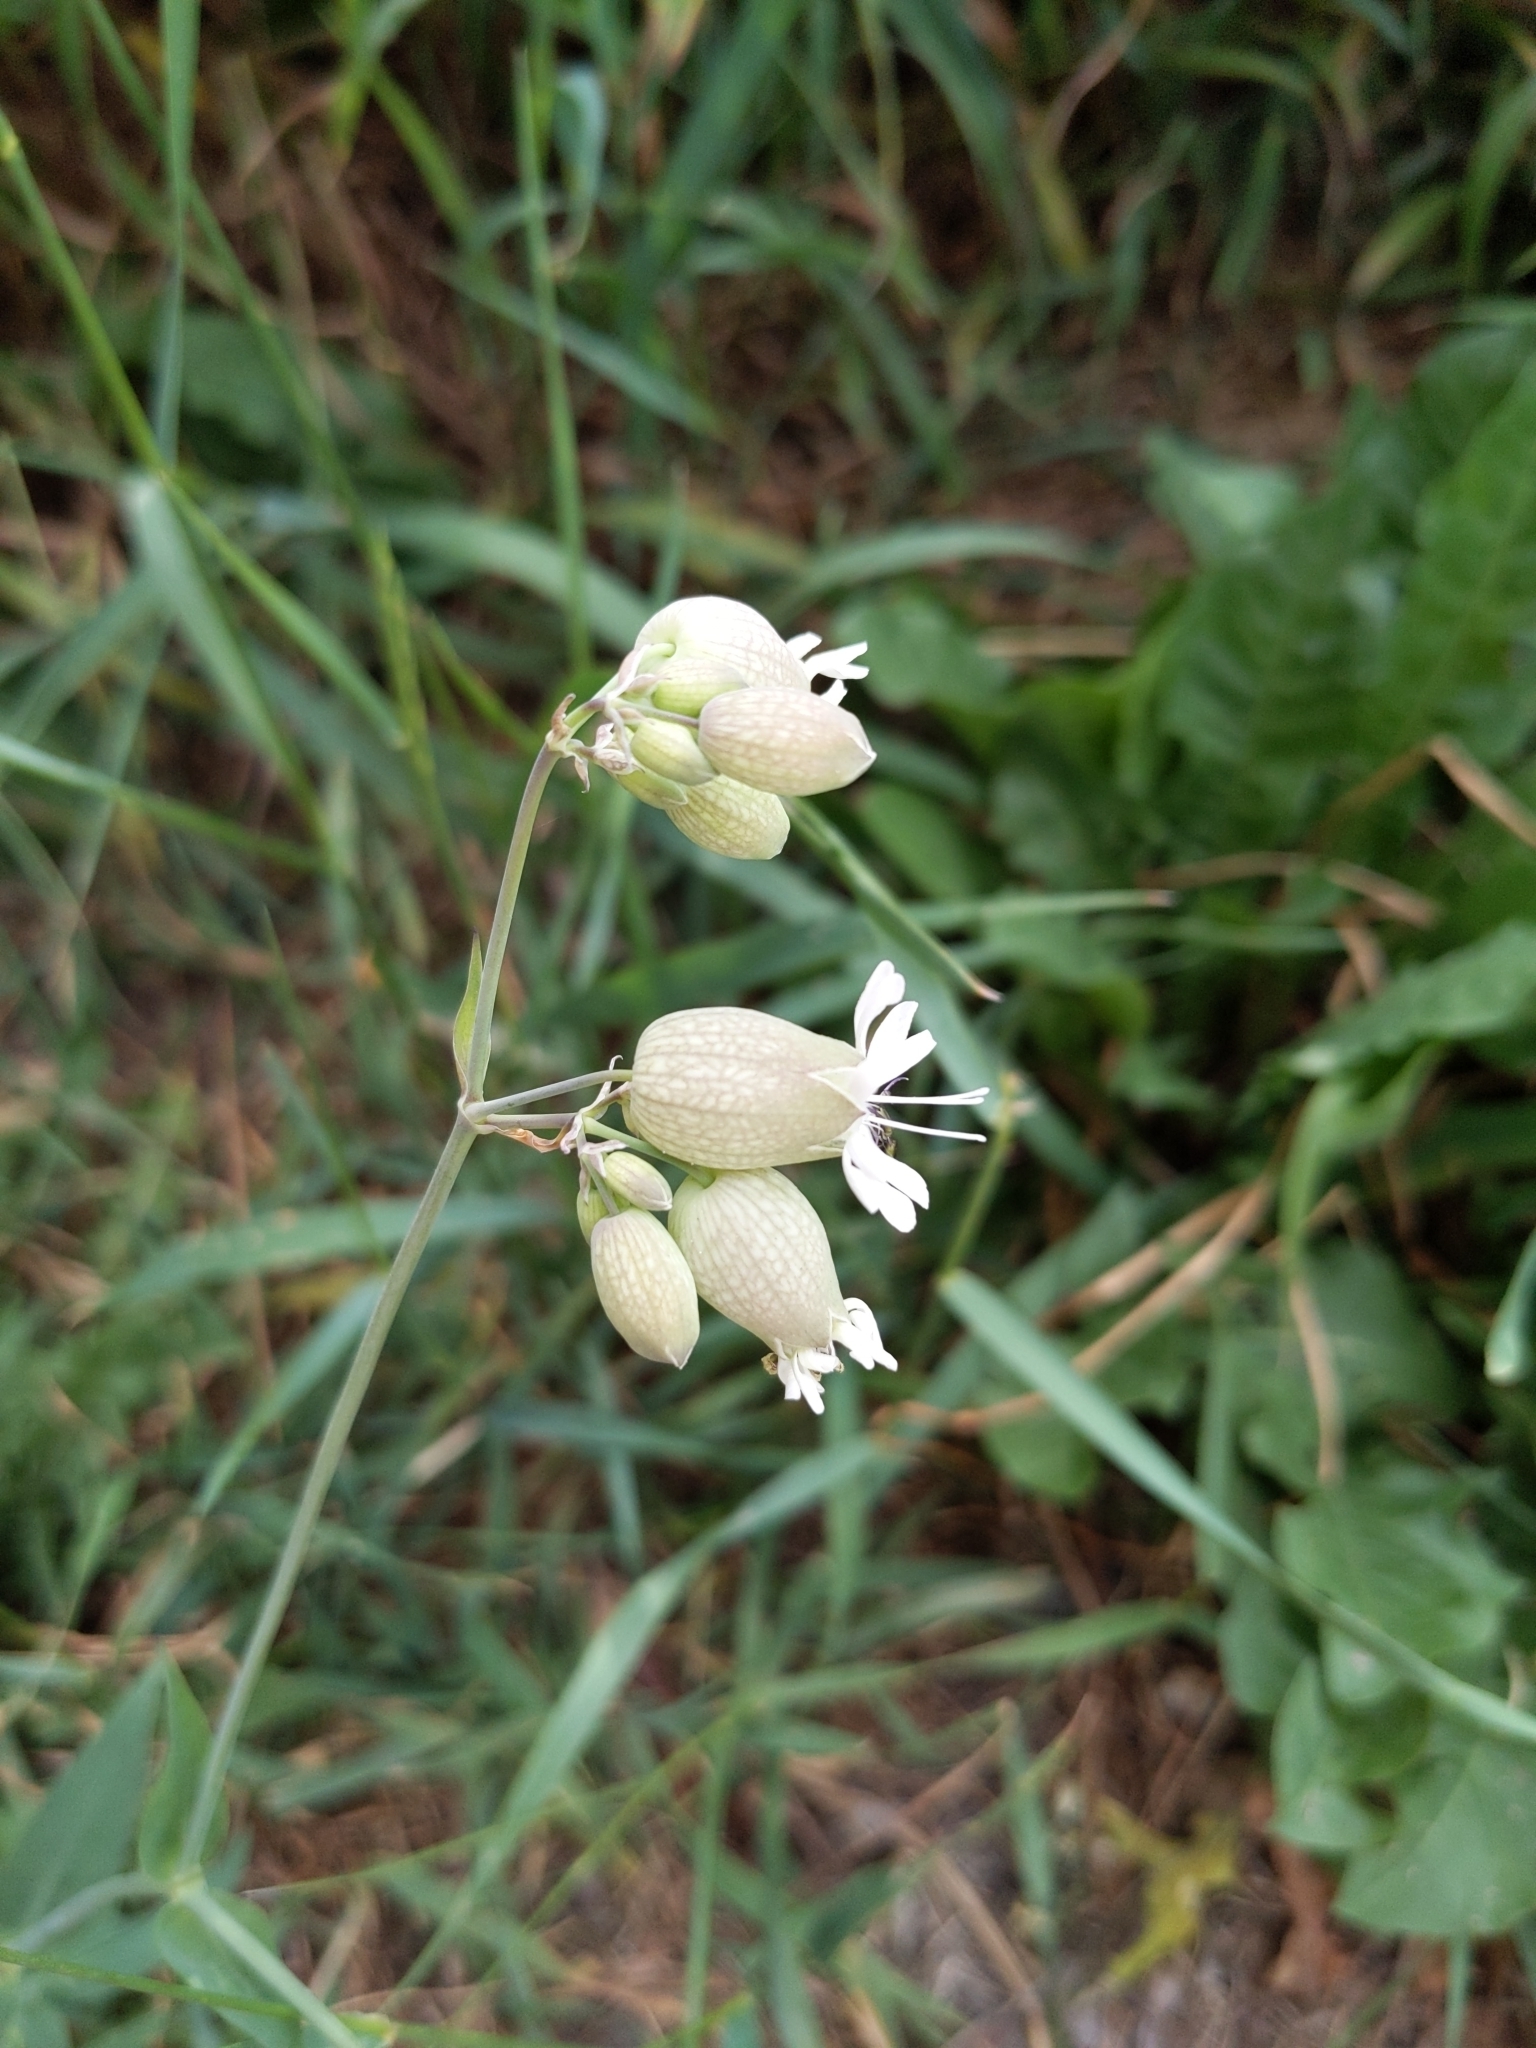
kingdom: Plantae
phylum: Tracheophyta
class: Magnoliopsida
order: Caryophyllales
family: Caryophyllaceae
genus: Silene
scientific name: Silene vulgaris
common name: Bladder campion
